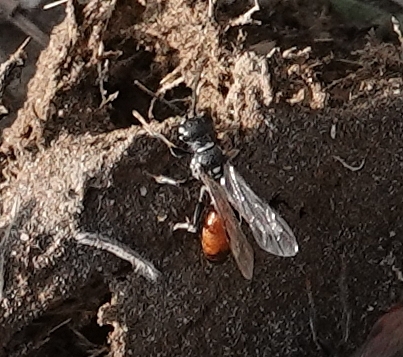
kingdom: Animalia
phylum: Arthropoda
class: Insecta
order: Hymenoptera
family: Crabronidae
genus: Mellinus
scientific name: Mellinus abdominalis
